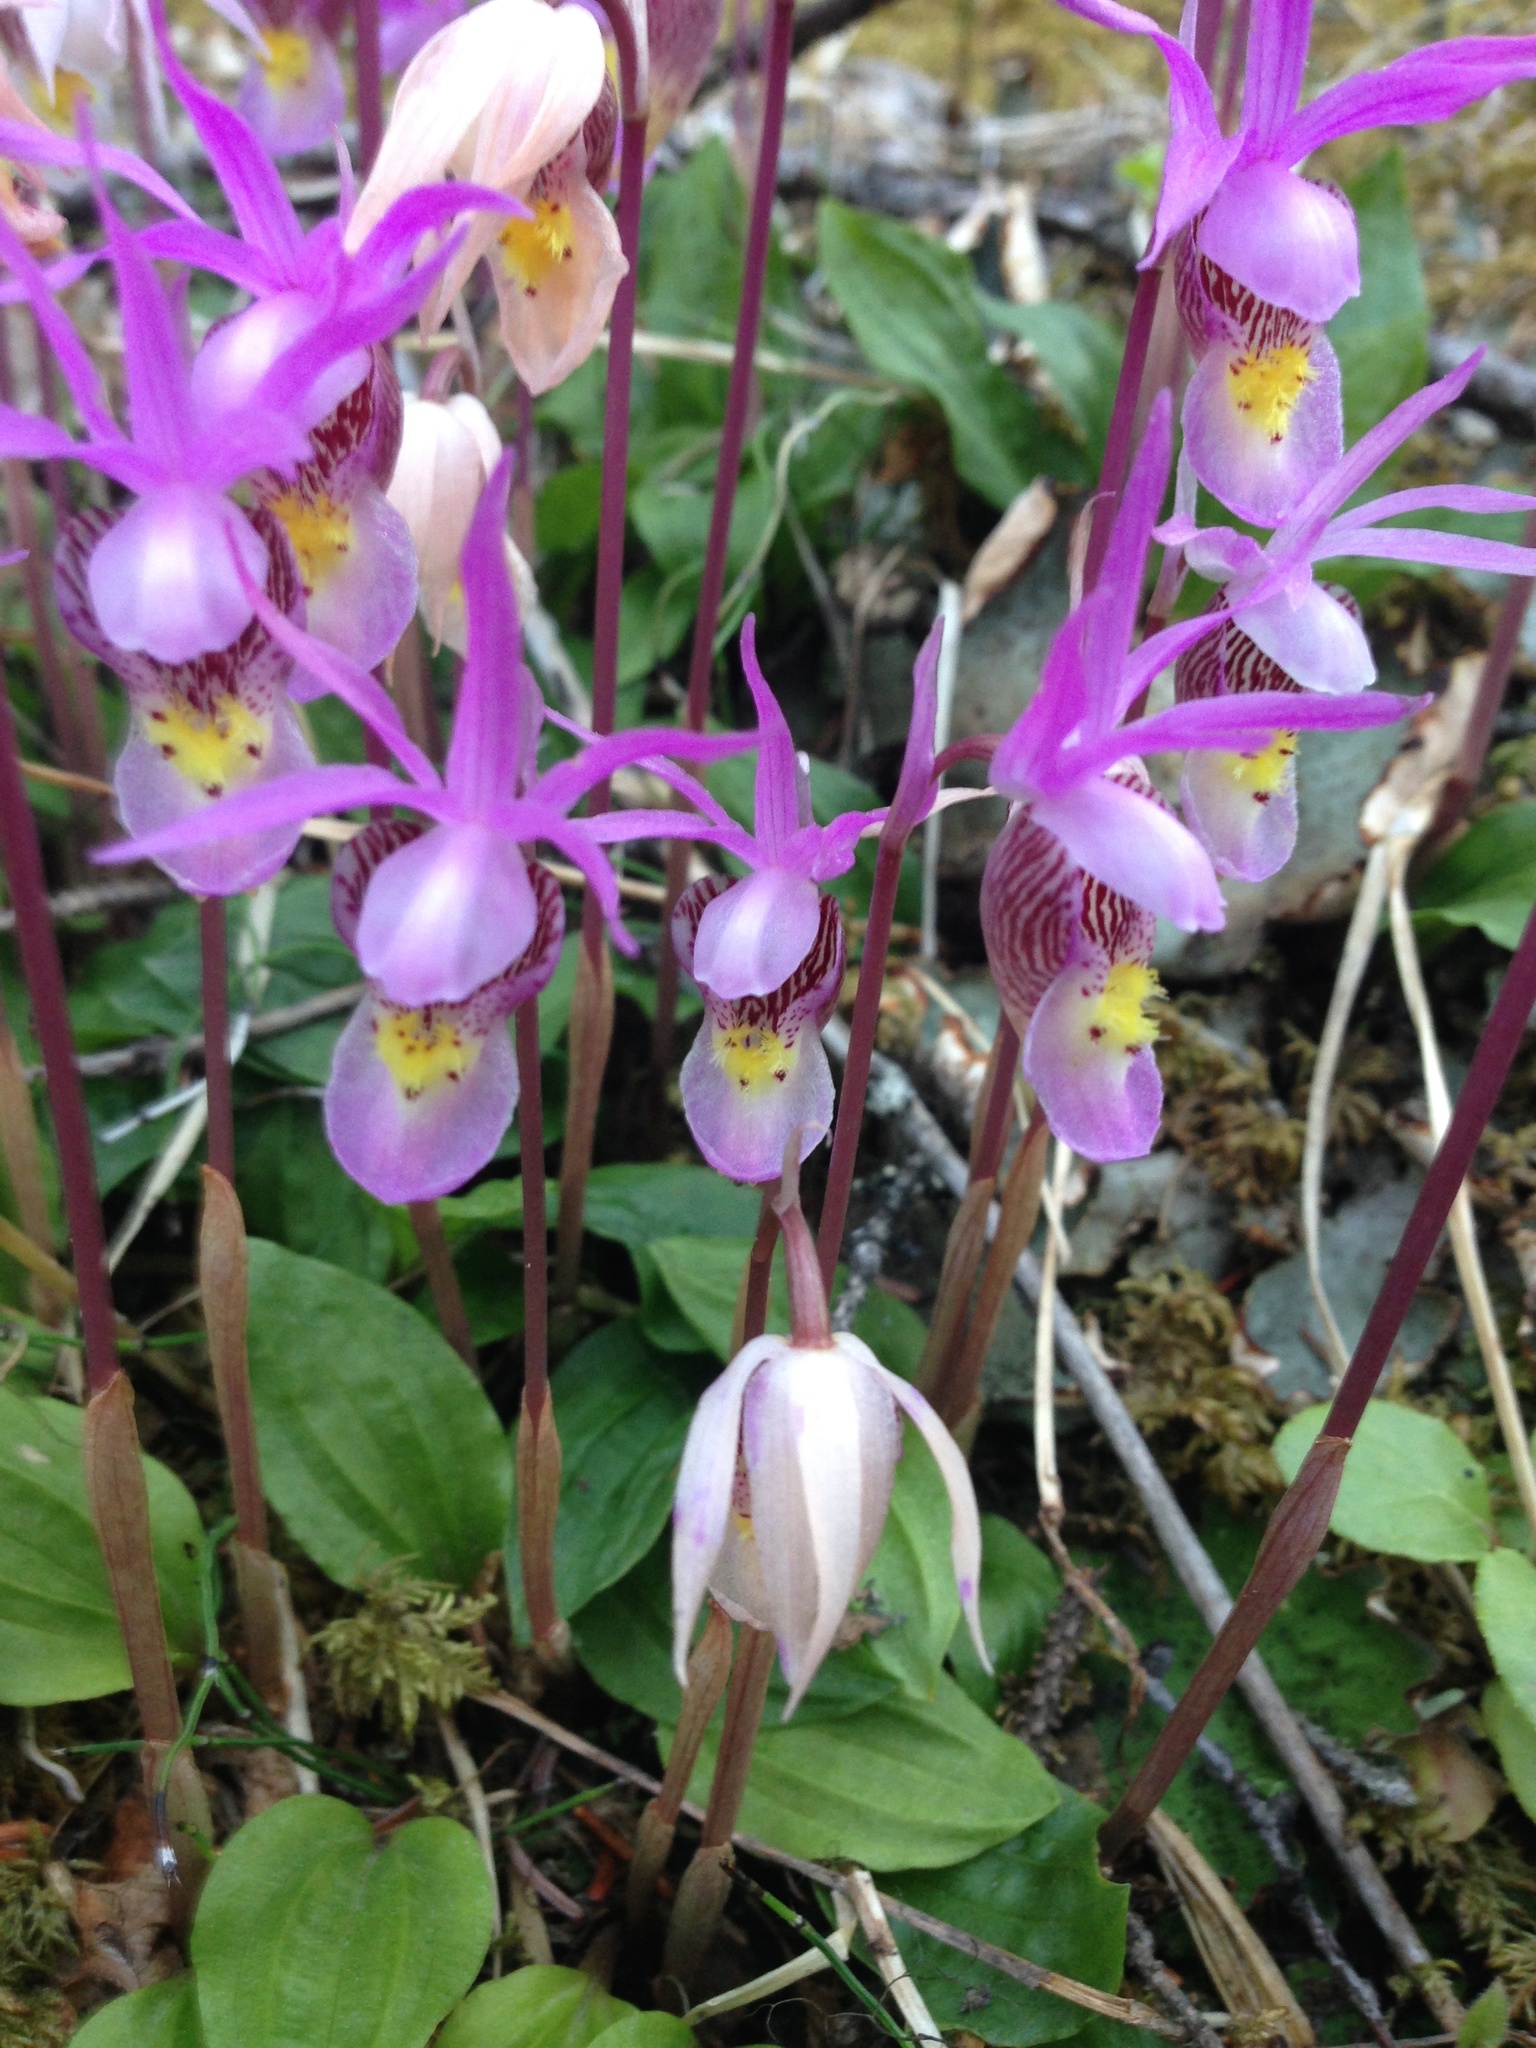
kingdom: Plantae
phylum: Tracheophyta
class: Liliopsida
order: Asparagales
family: Orchidaceae
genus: Calypso
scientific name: Calypso bulbosa
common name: Calypso
